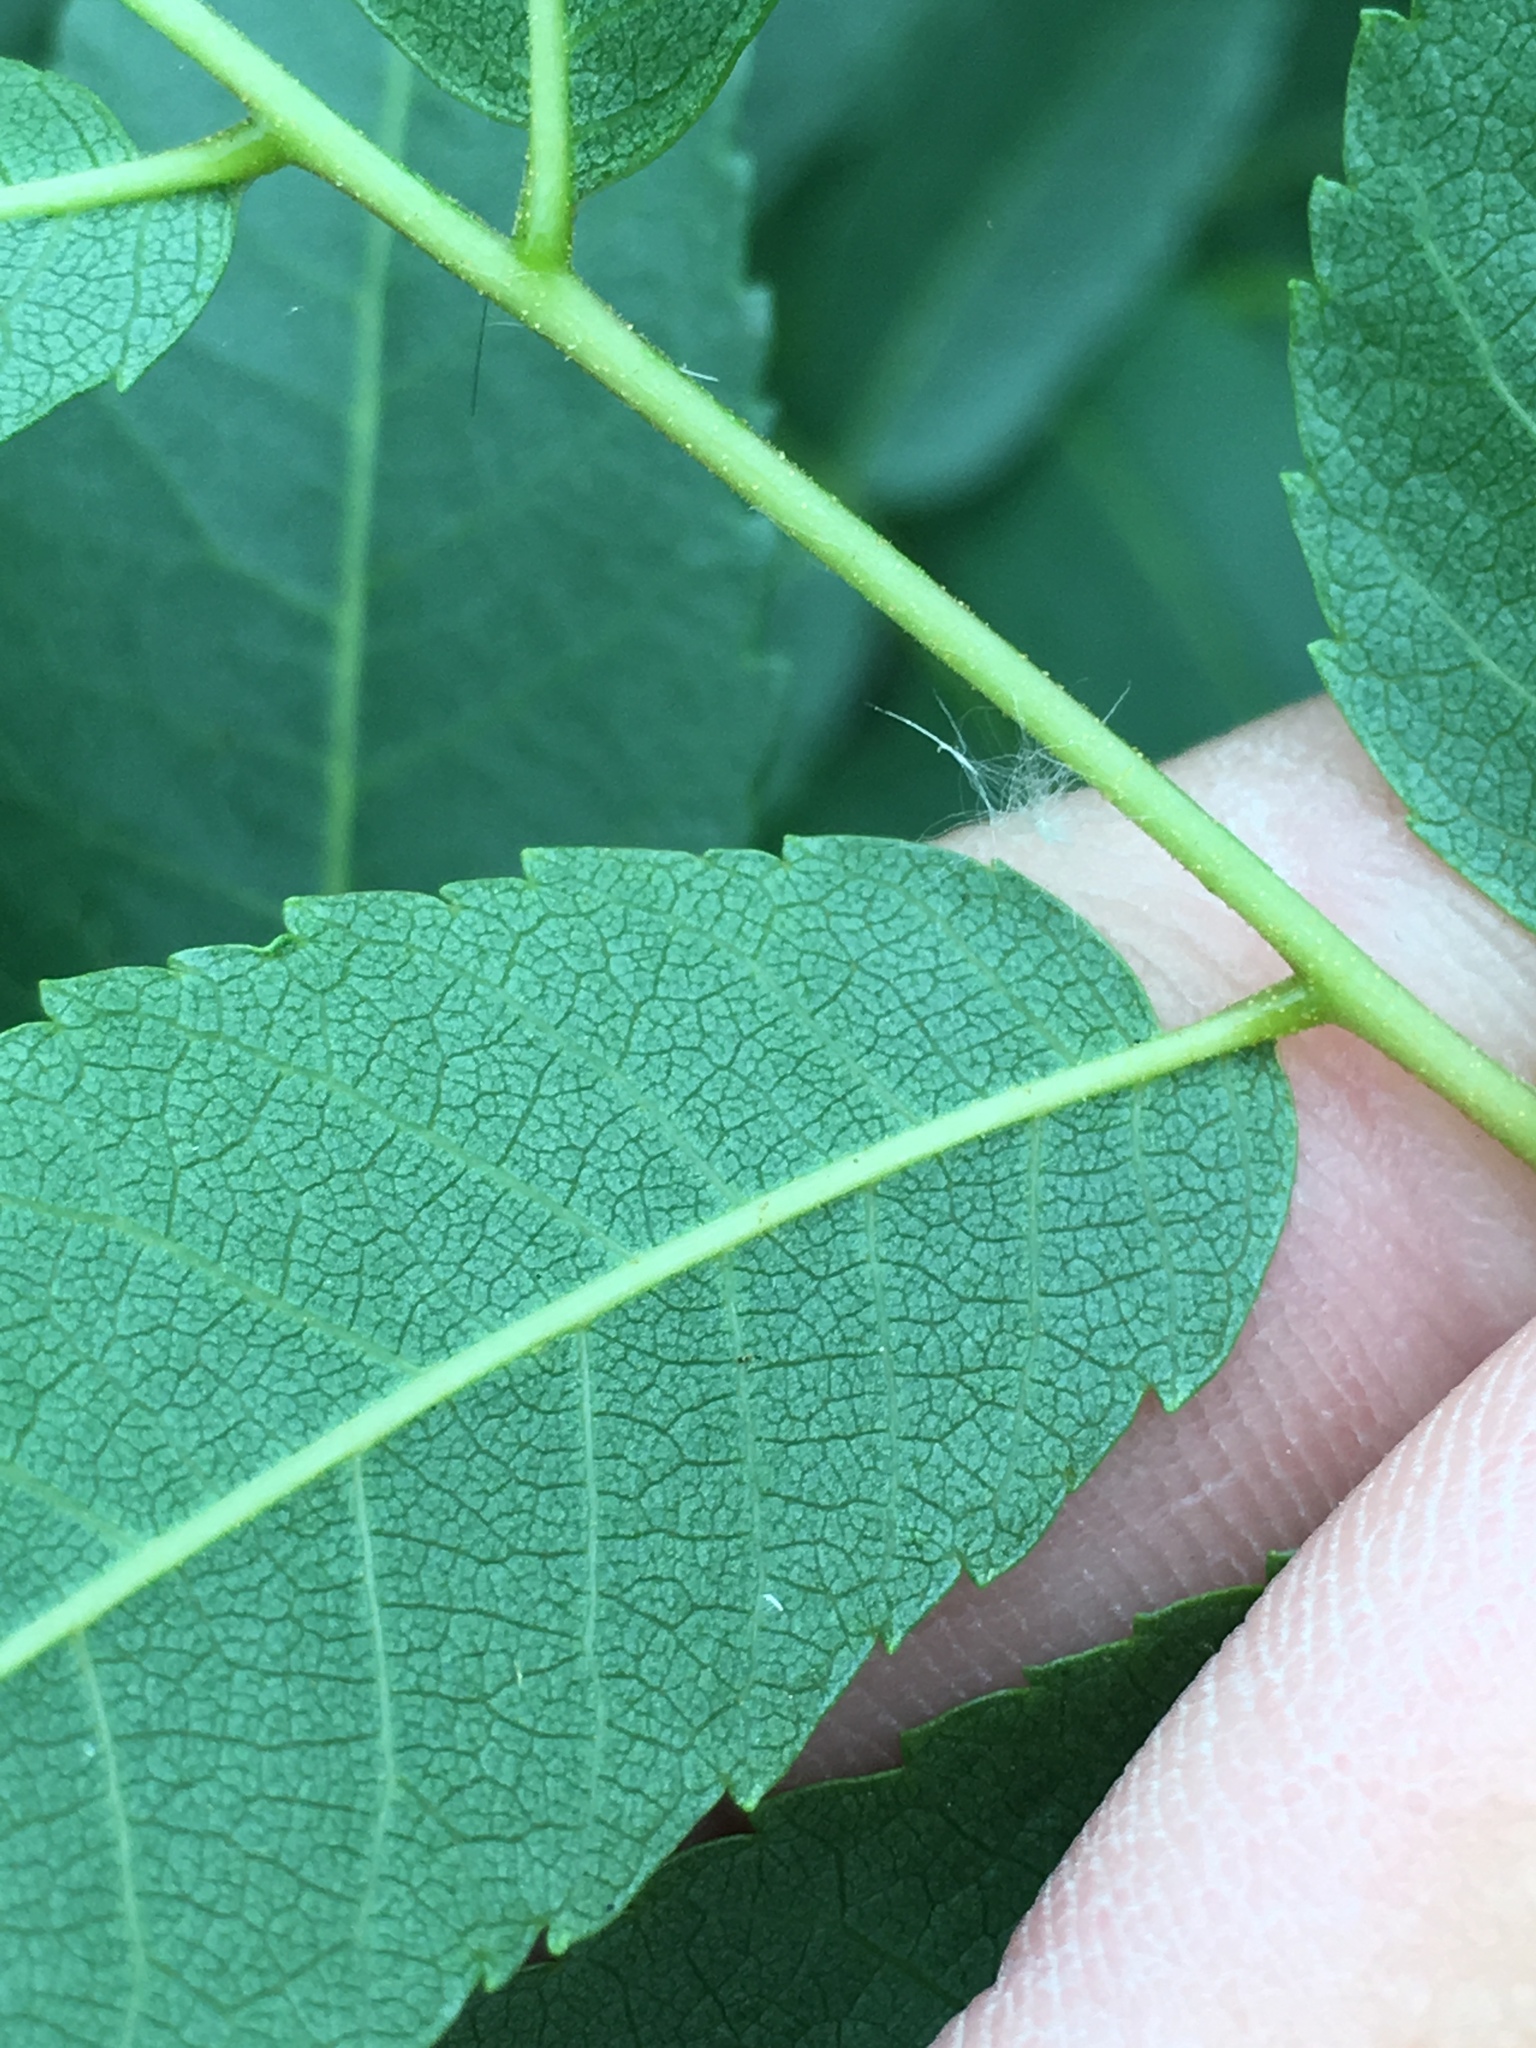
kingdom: Plantae
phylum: Tracheophyta
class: Magnoliopsida
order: Fagales
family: Juglandaceae
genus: Juglans
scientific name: Juglans californica
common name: Southern california black walnut
